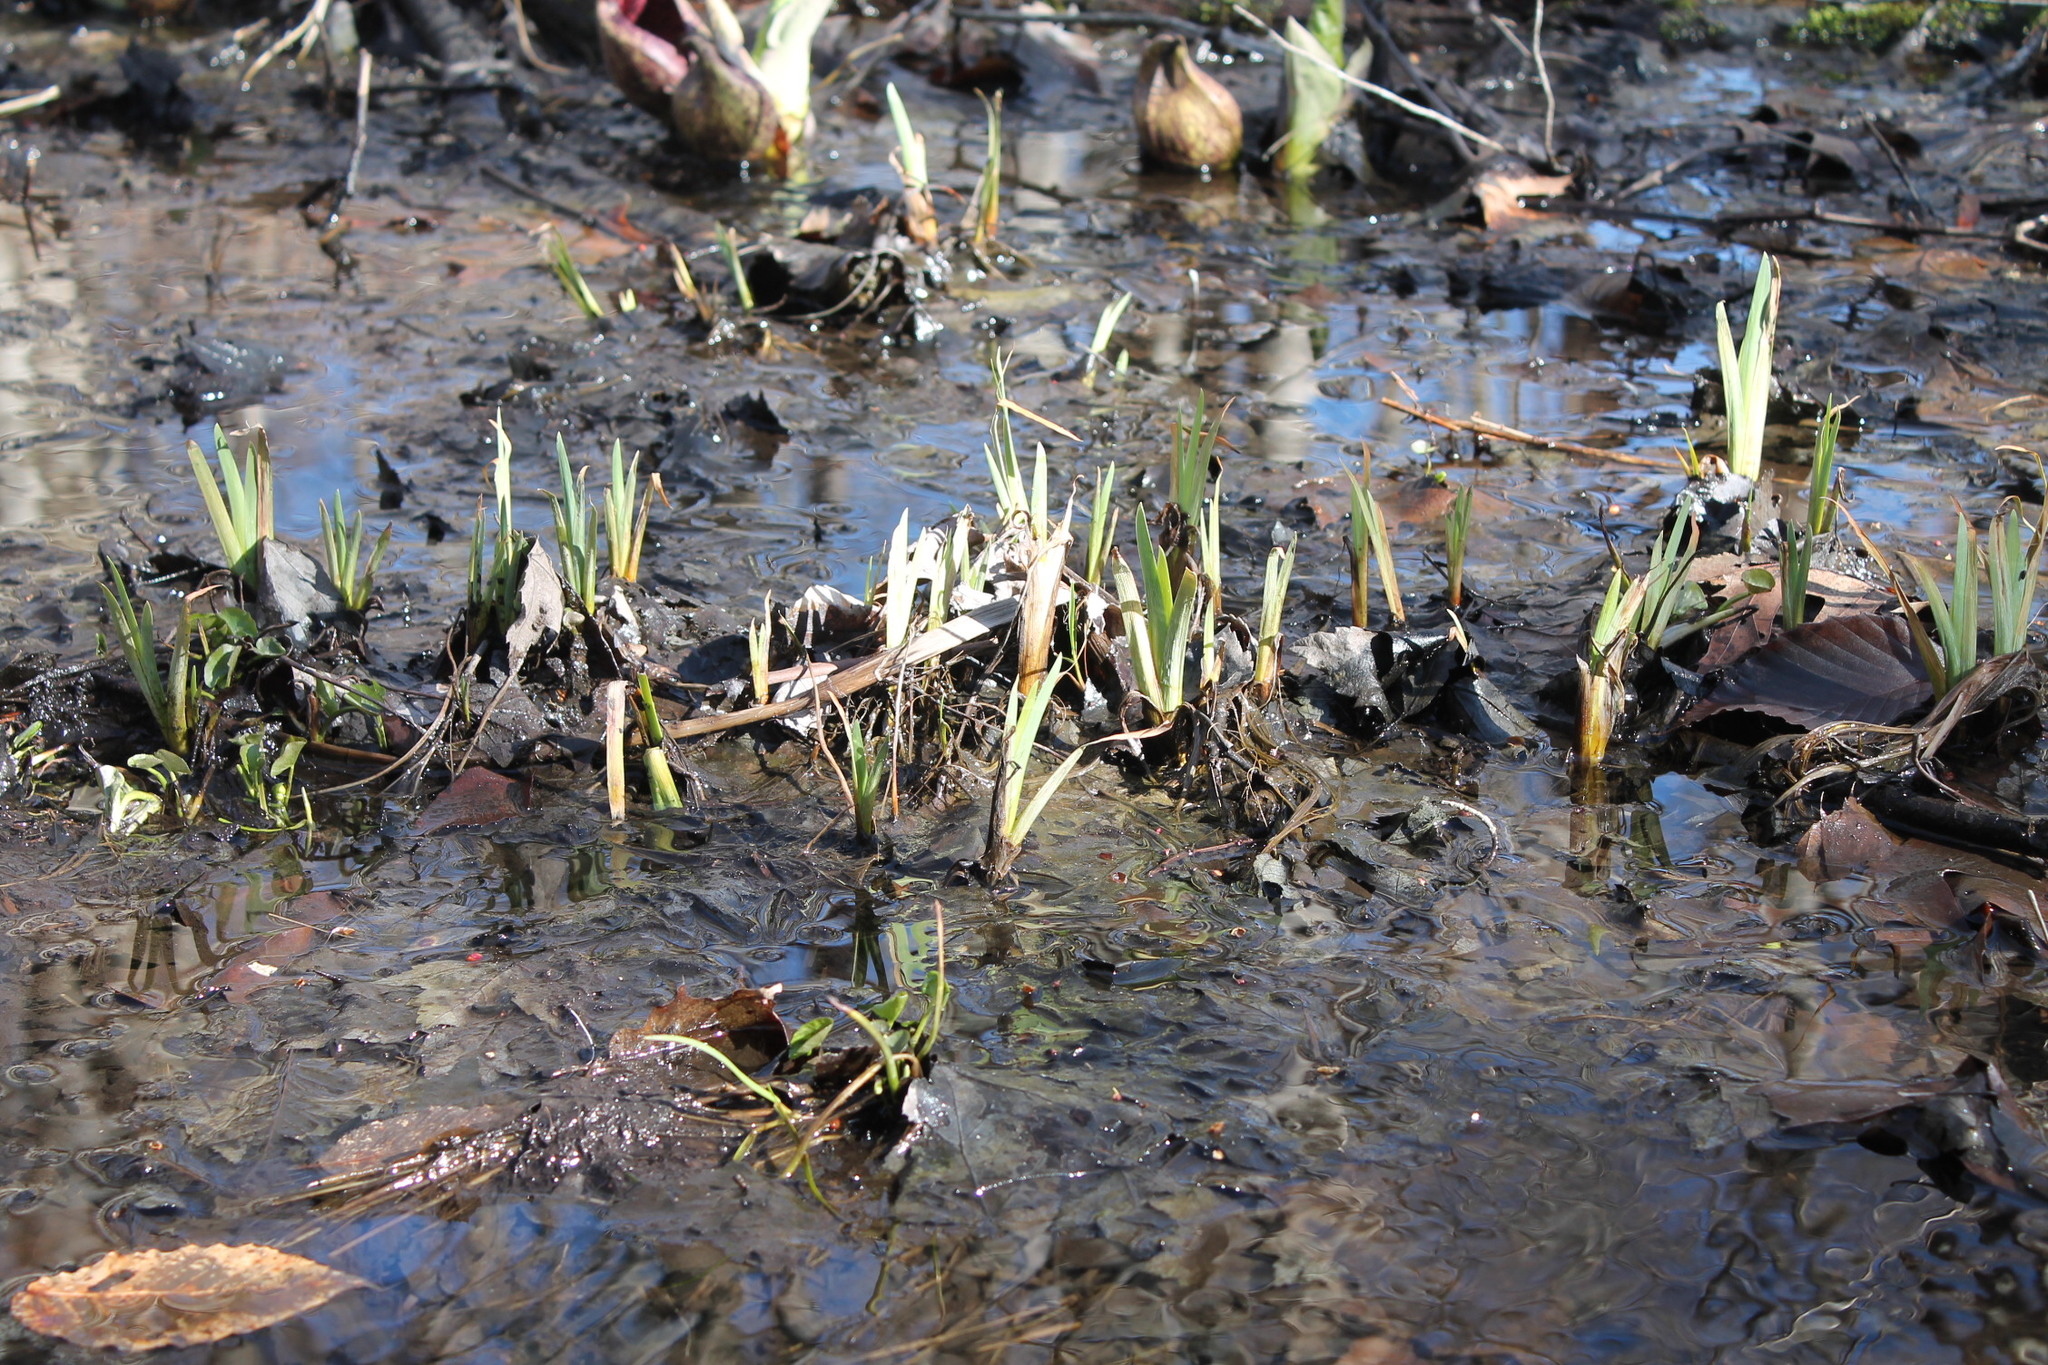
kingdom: Plantae
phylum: Tracheophyta
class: Liliopsida
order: Asparagales
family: Iridaceae
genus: Iris
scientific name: Iris versicolor
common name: Purple iris
